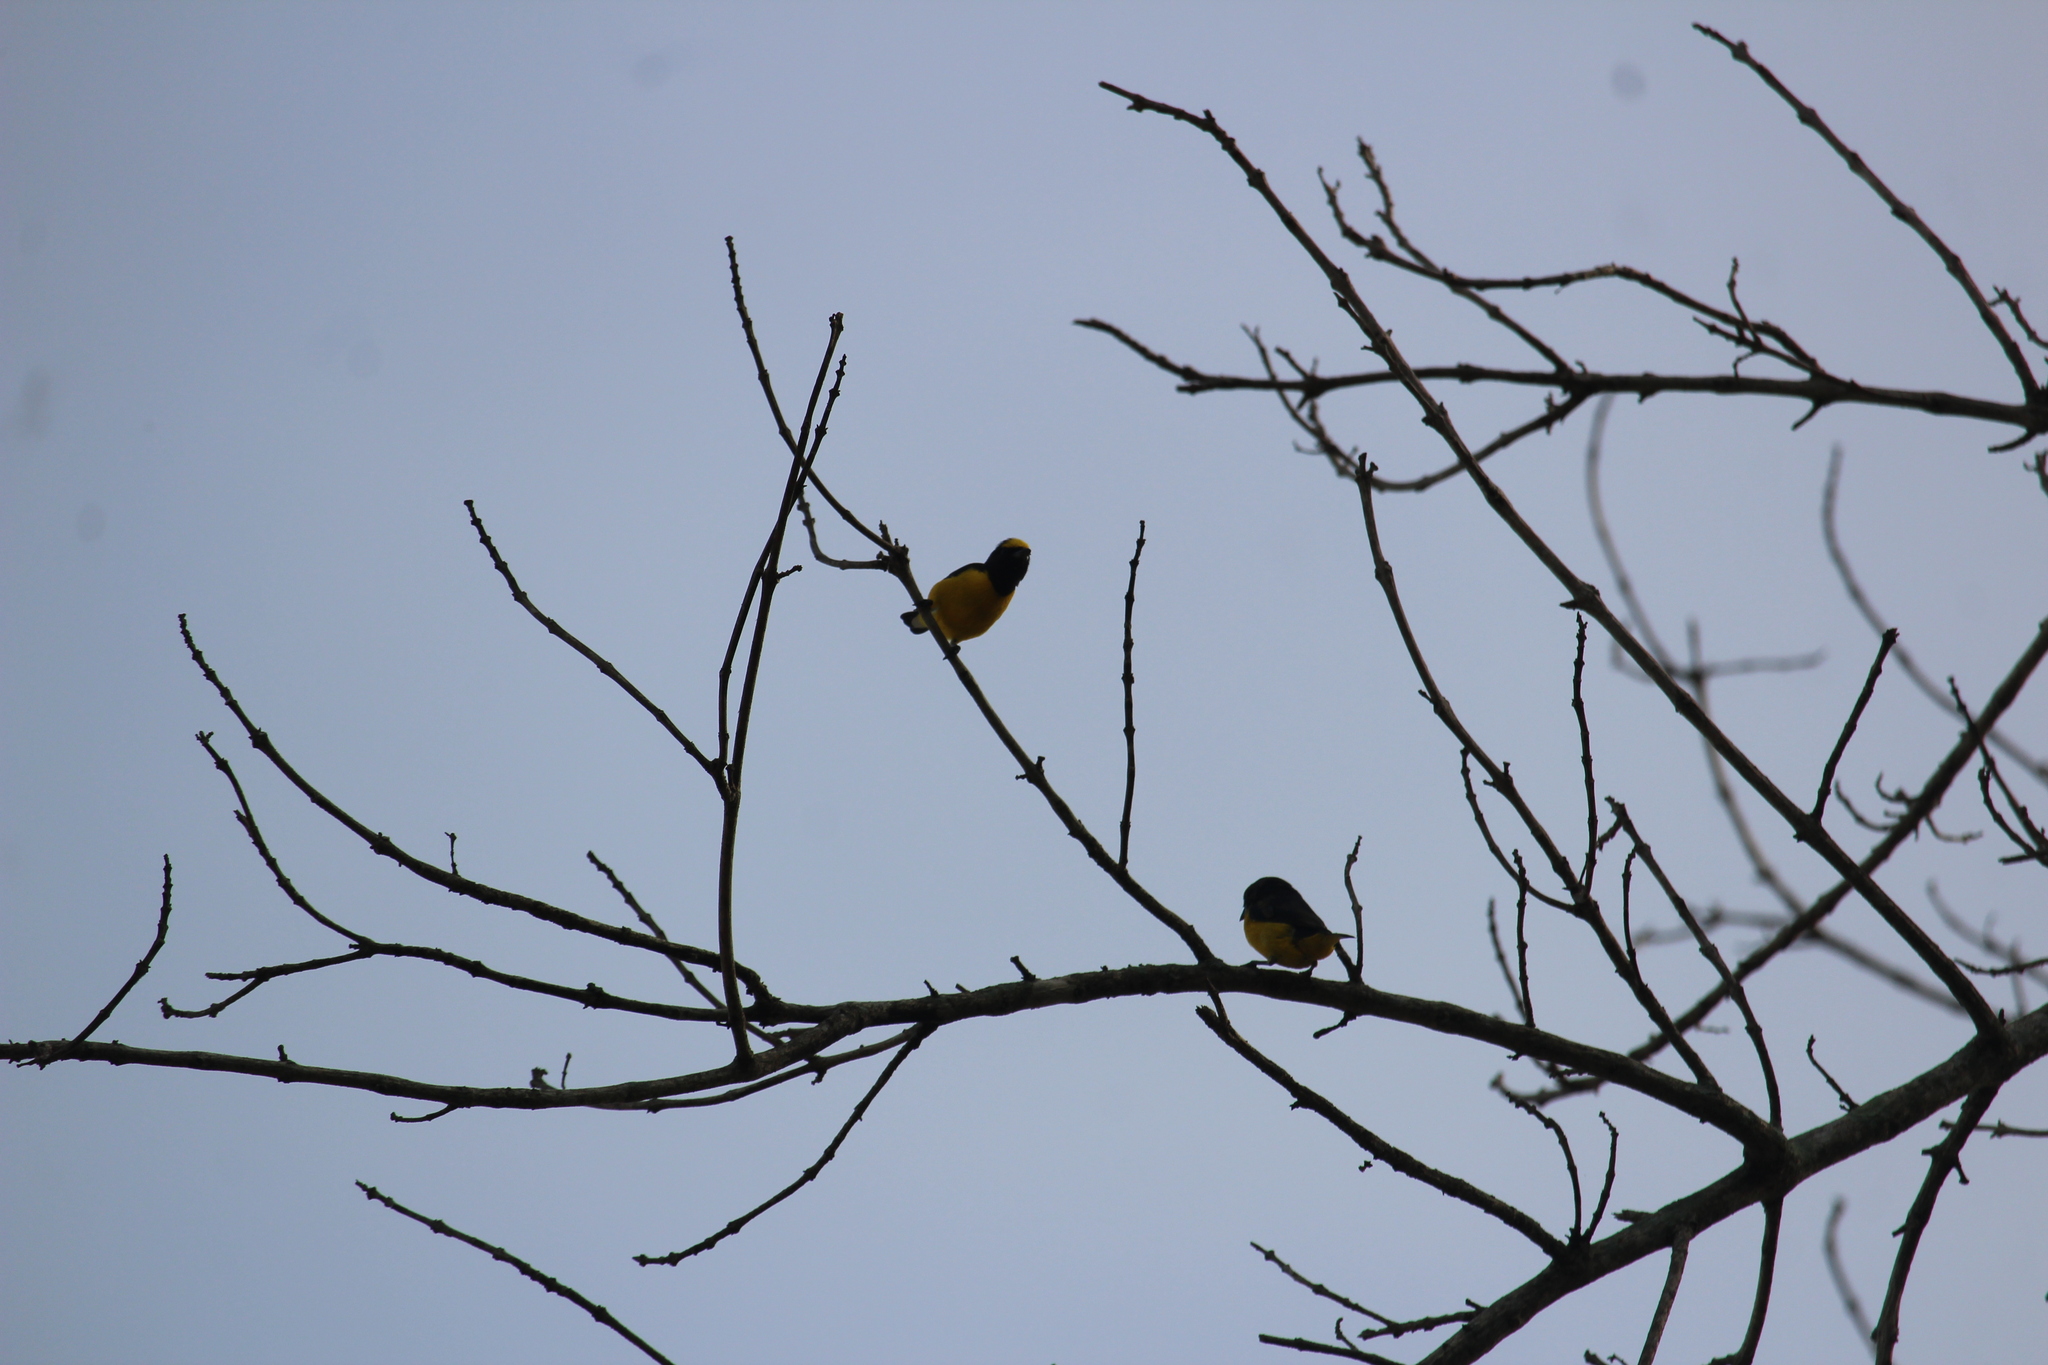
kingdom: Animalia
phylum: Chordata
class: Aves
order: Passeriformes
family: Fringillidae
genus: Euphonia
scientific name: Euphonia affinis
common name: Scrub euphonia
